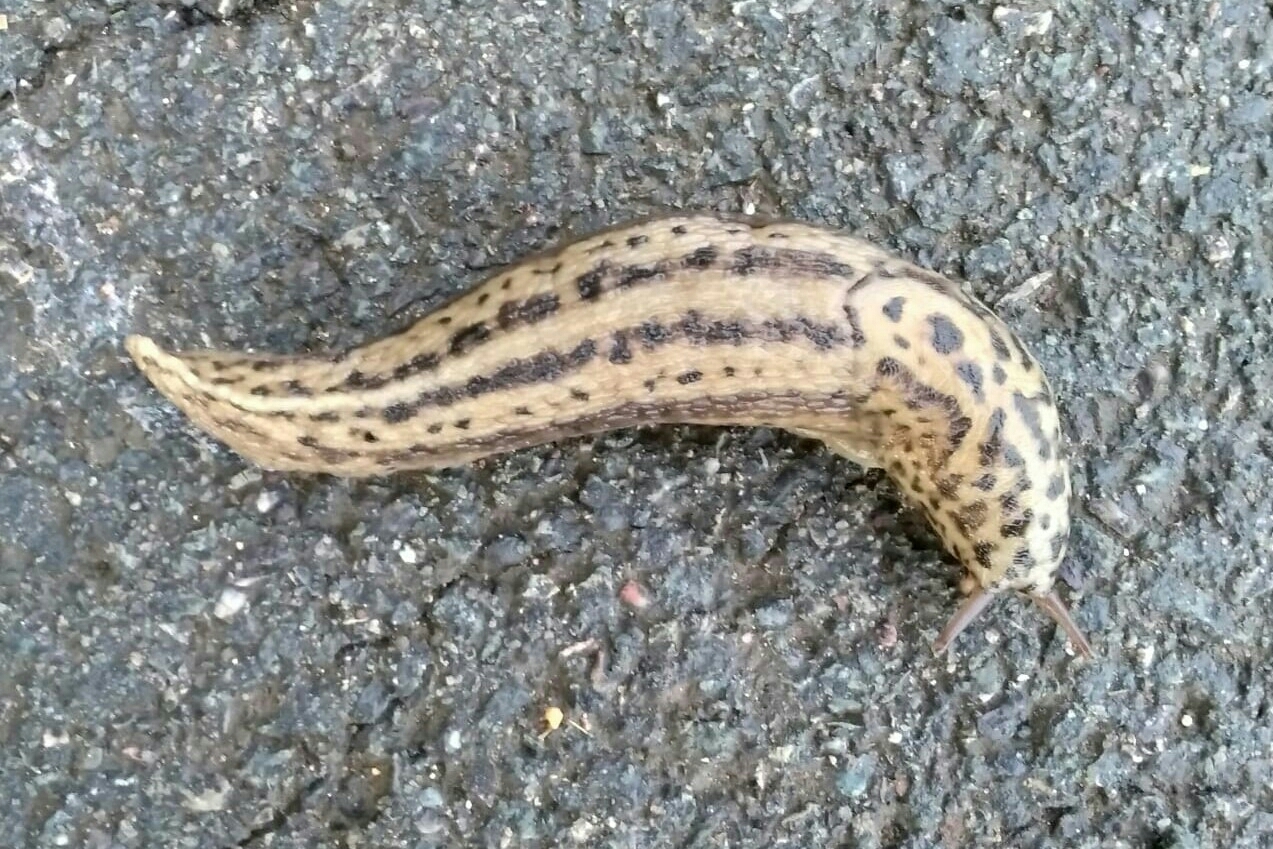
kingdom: Animalia
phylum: Mollusca
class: Gastropoda
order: Stylommatophora
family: Limacidae
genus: Limax
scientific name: Limax maximus
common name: Great grey slug
